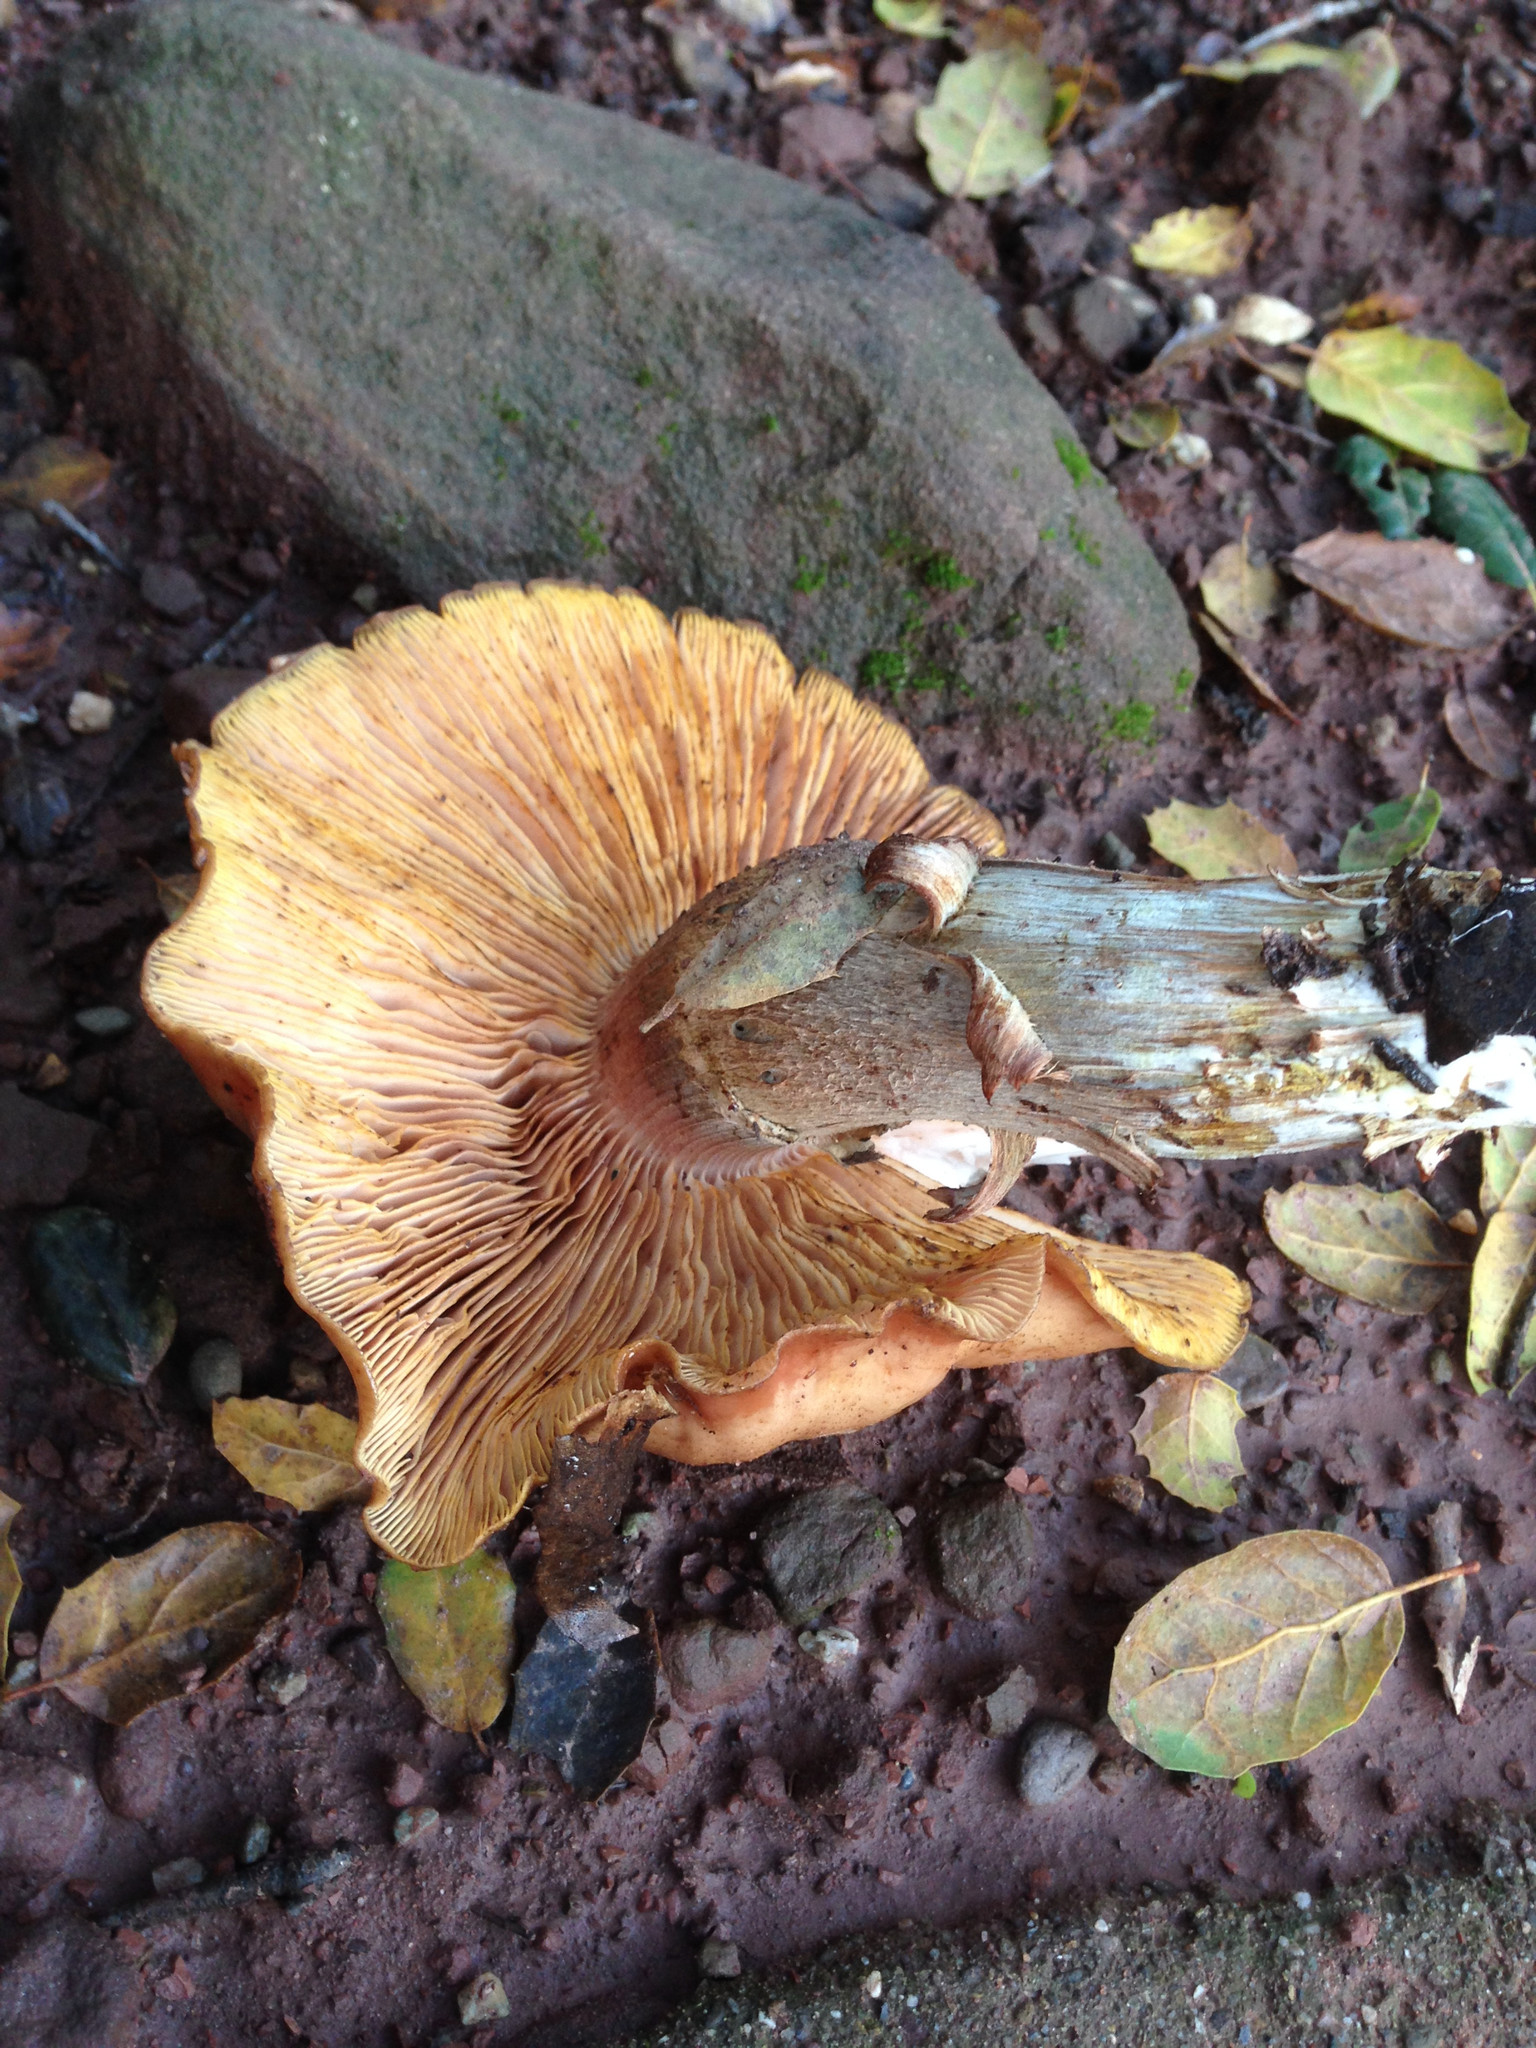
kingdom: Fungi
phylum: Basidiomycota
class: Agaricomycetes
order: Agaricales
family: Physalacriaceae
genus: Armillaria
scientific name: Armillaria mellea
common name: Honey fungus
